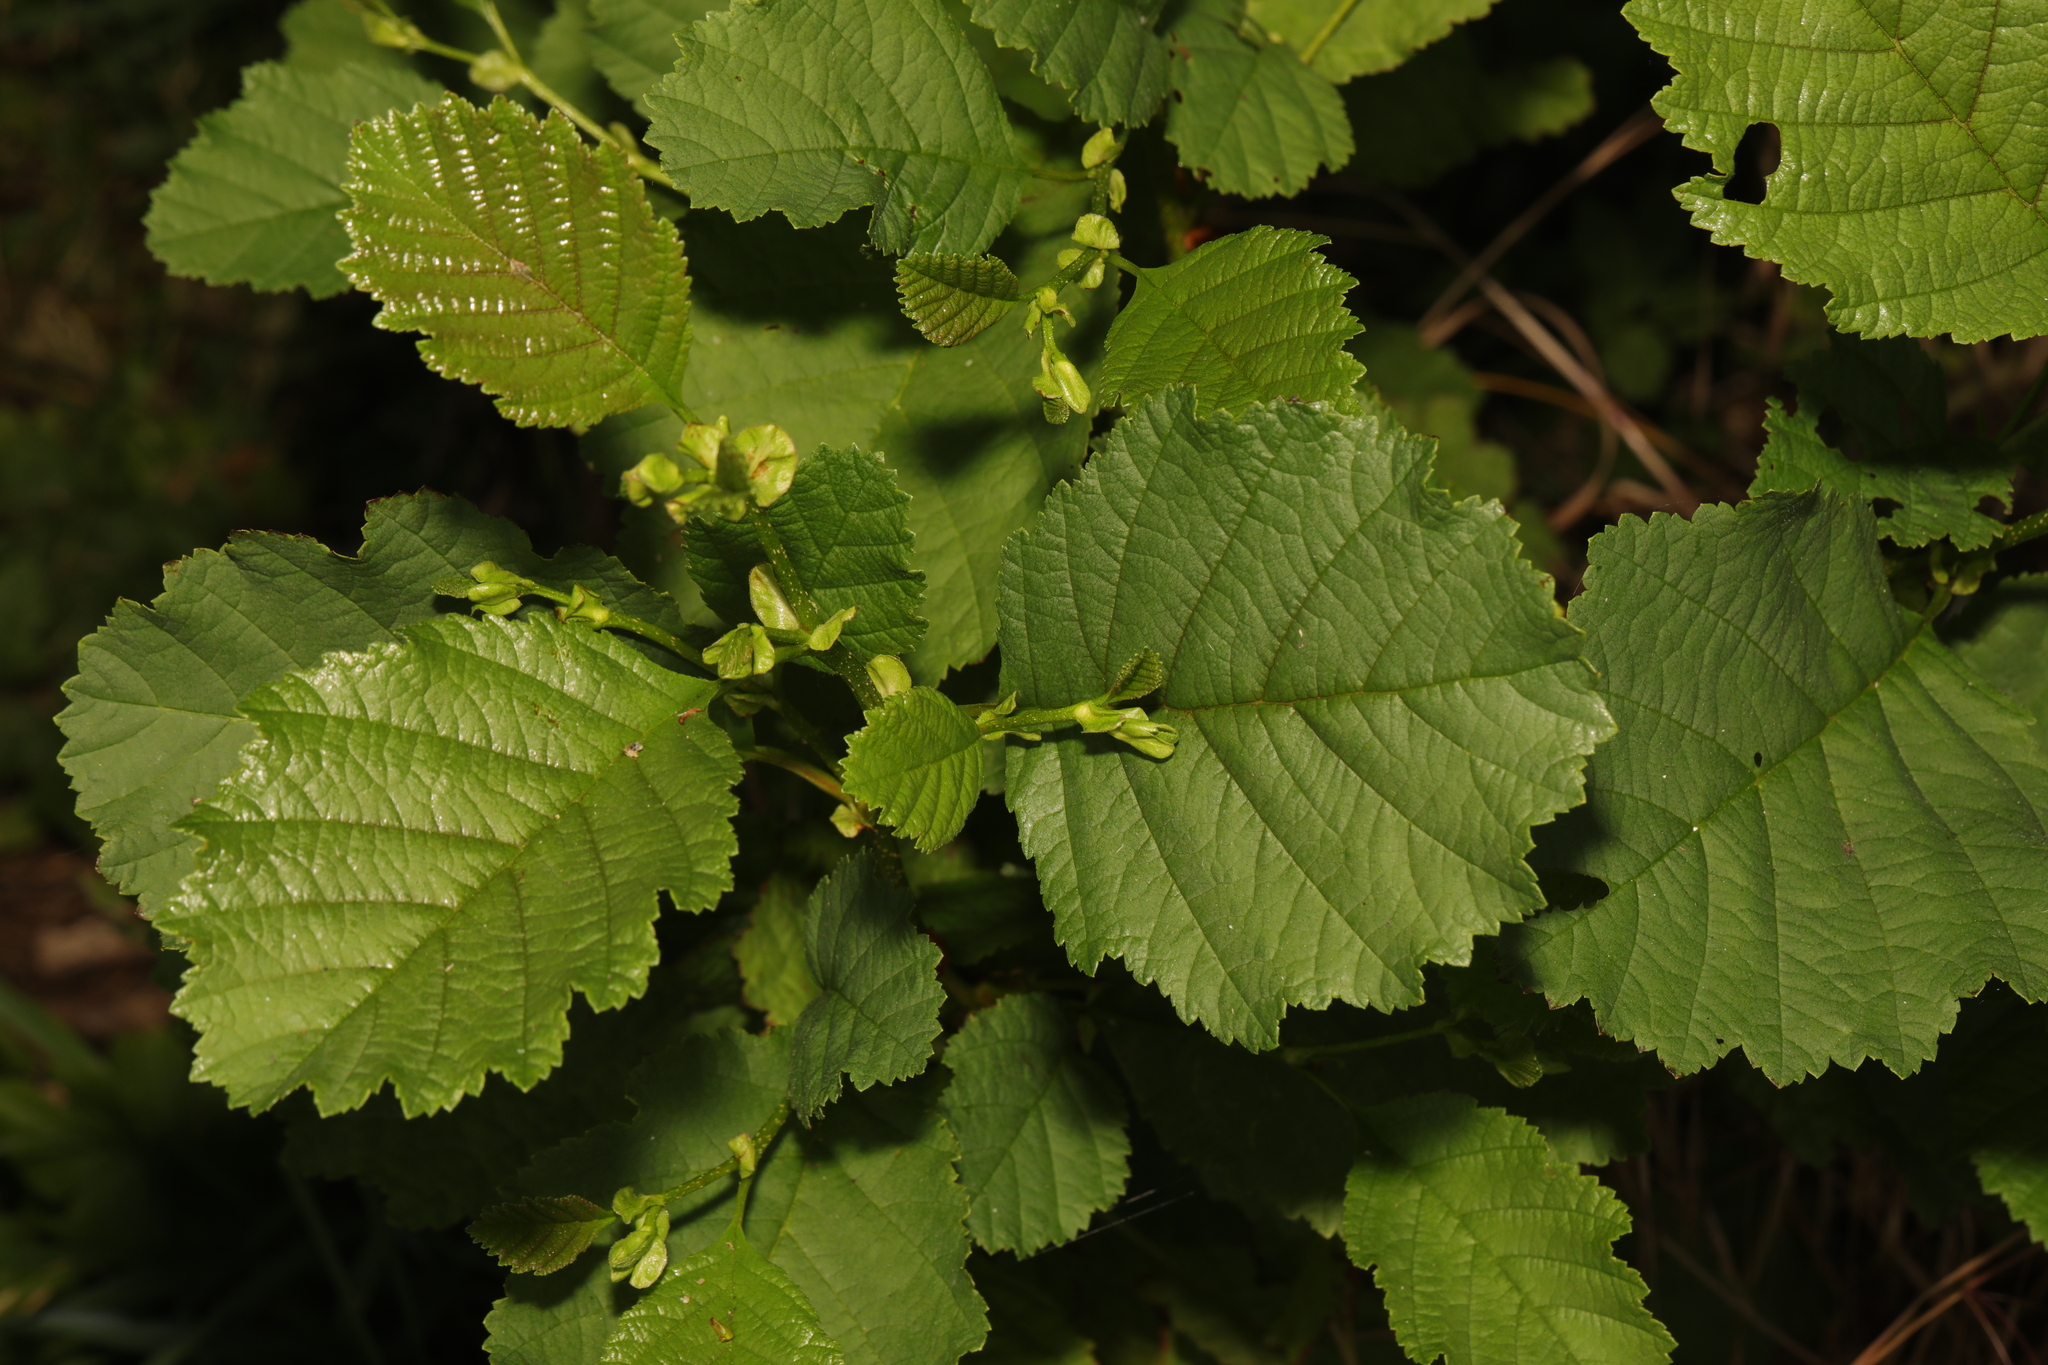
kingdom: Plantae
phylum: Tracheophyta
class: Magnoliopsida
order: Fagales
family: Betulaceae
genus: Alnus
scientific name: Alnus glutinosa
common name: Black alder
